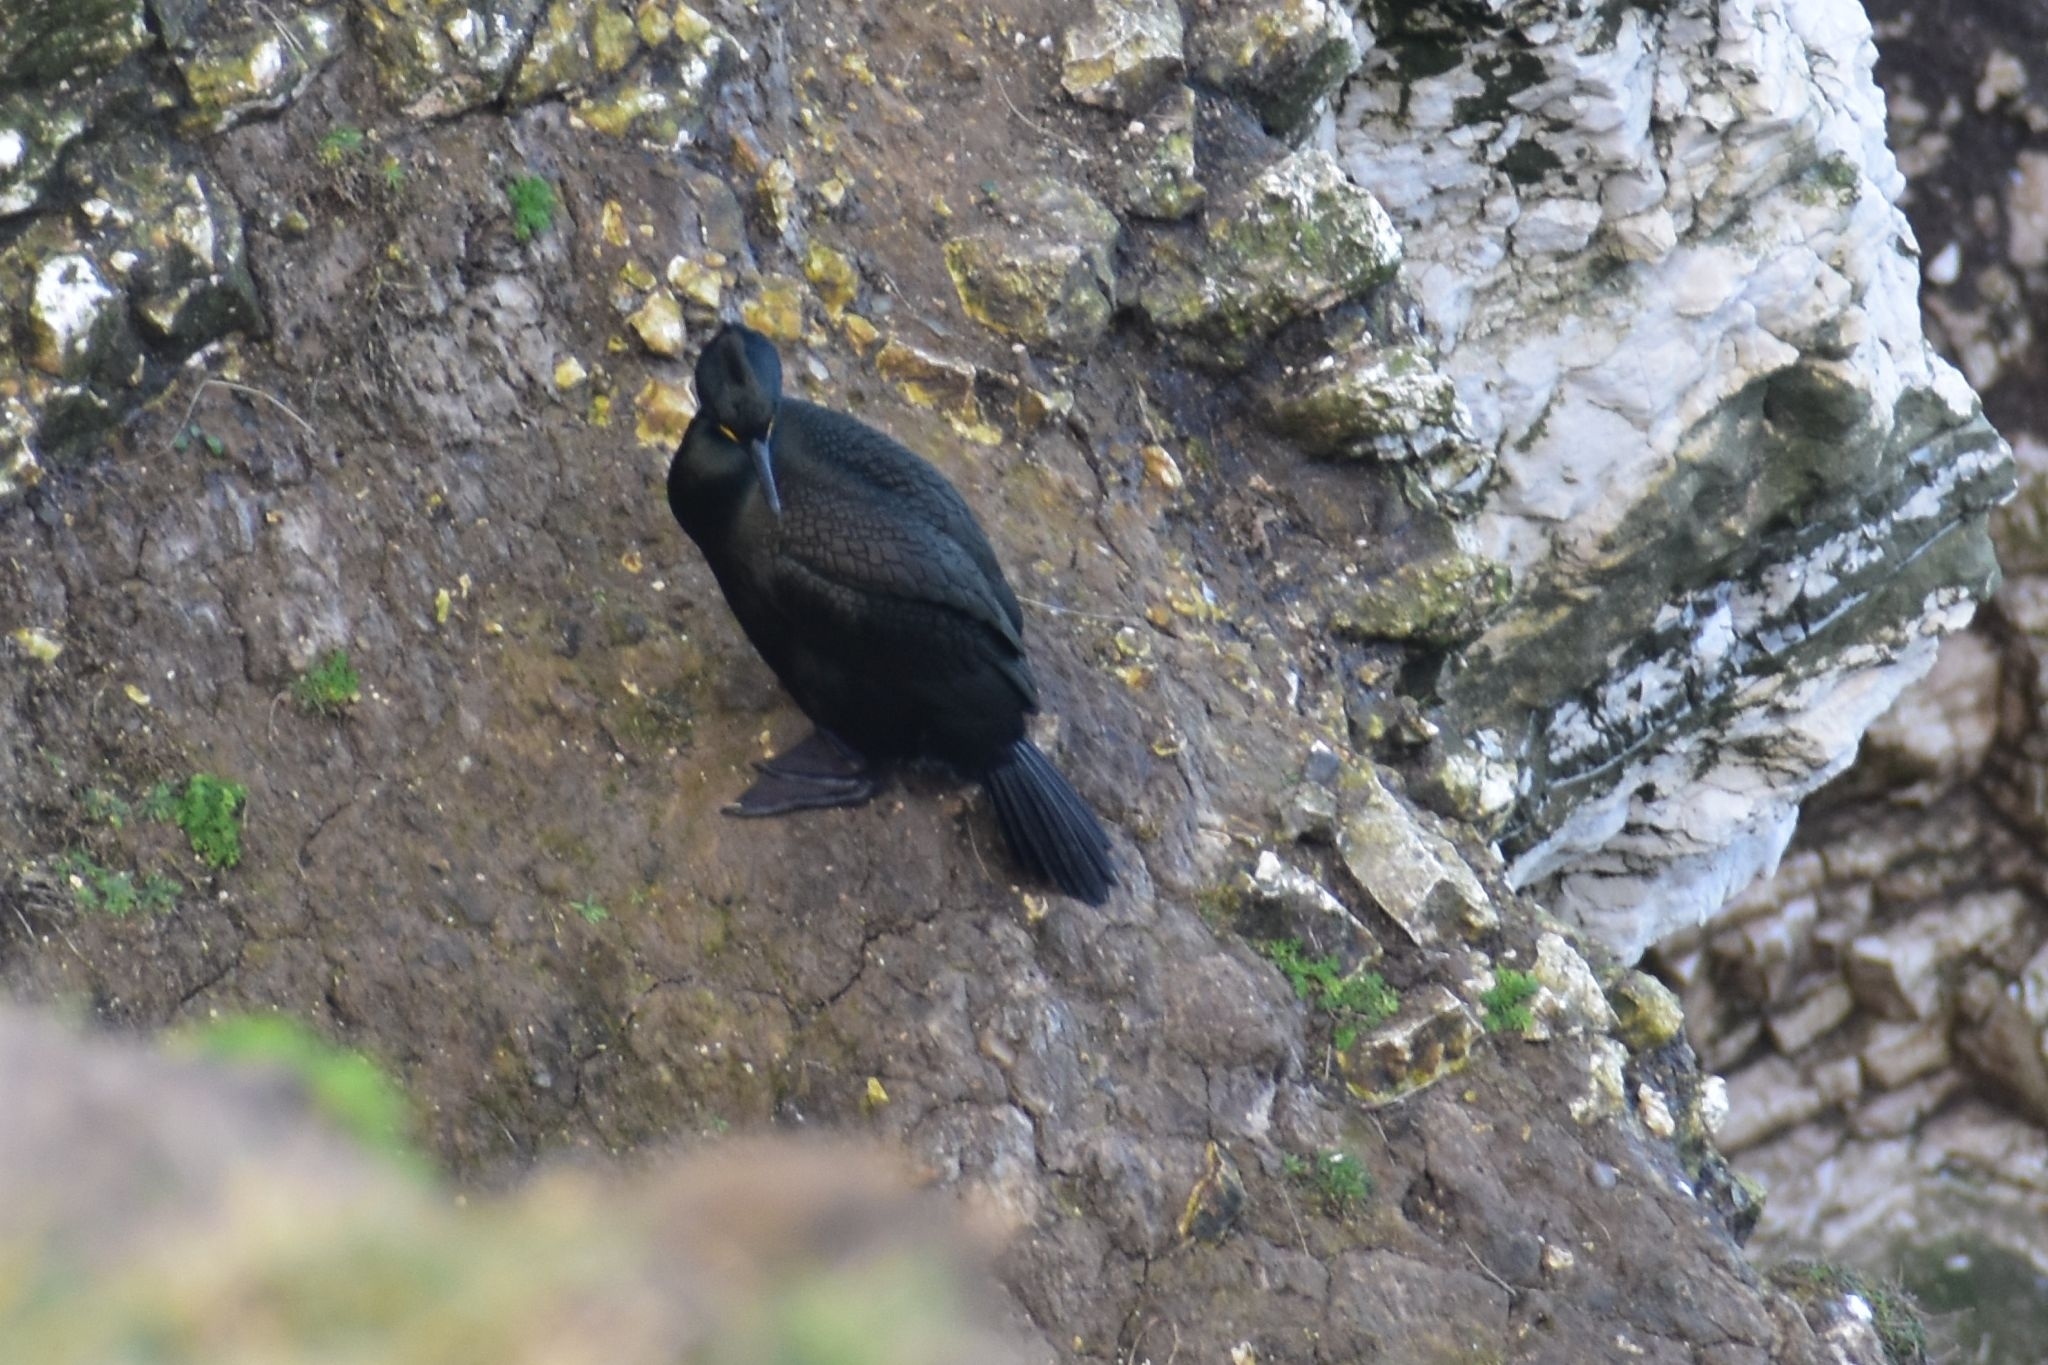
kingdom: Animalia
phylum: Chordata
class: Aves
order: Suliformes
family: Phalacrocoracidae
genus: Phalacrocorax
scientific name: Phalacrocorax aristotelis
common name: European shag
